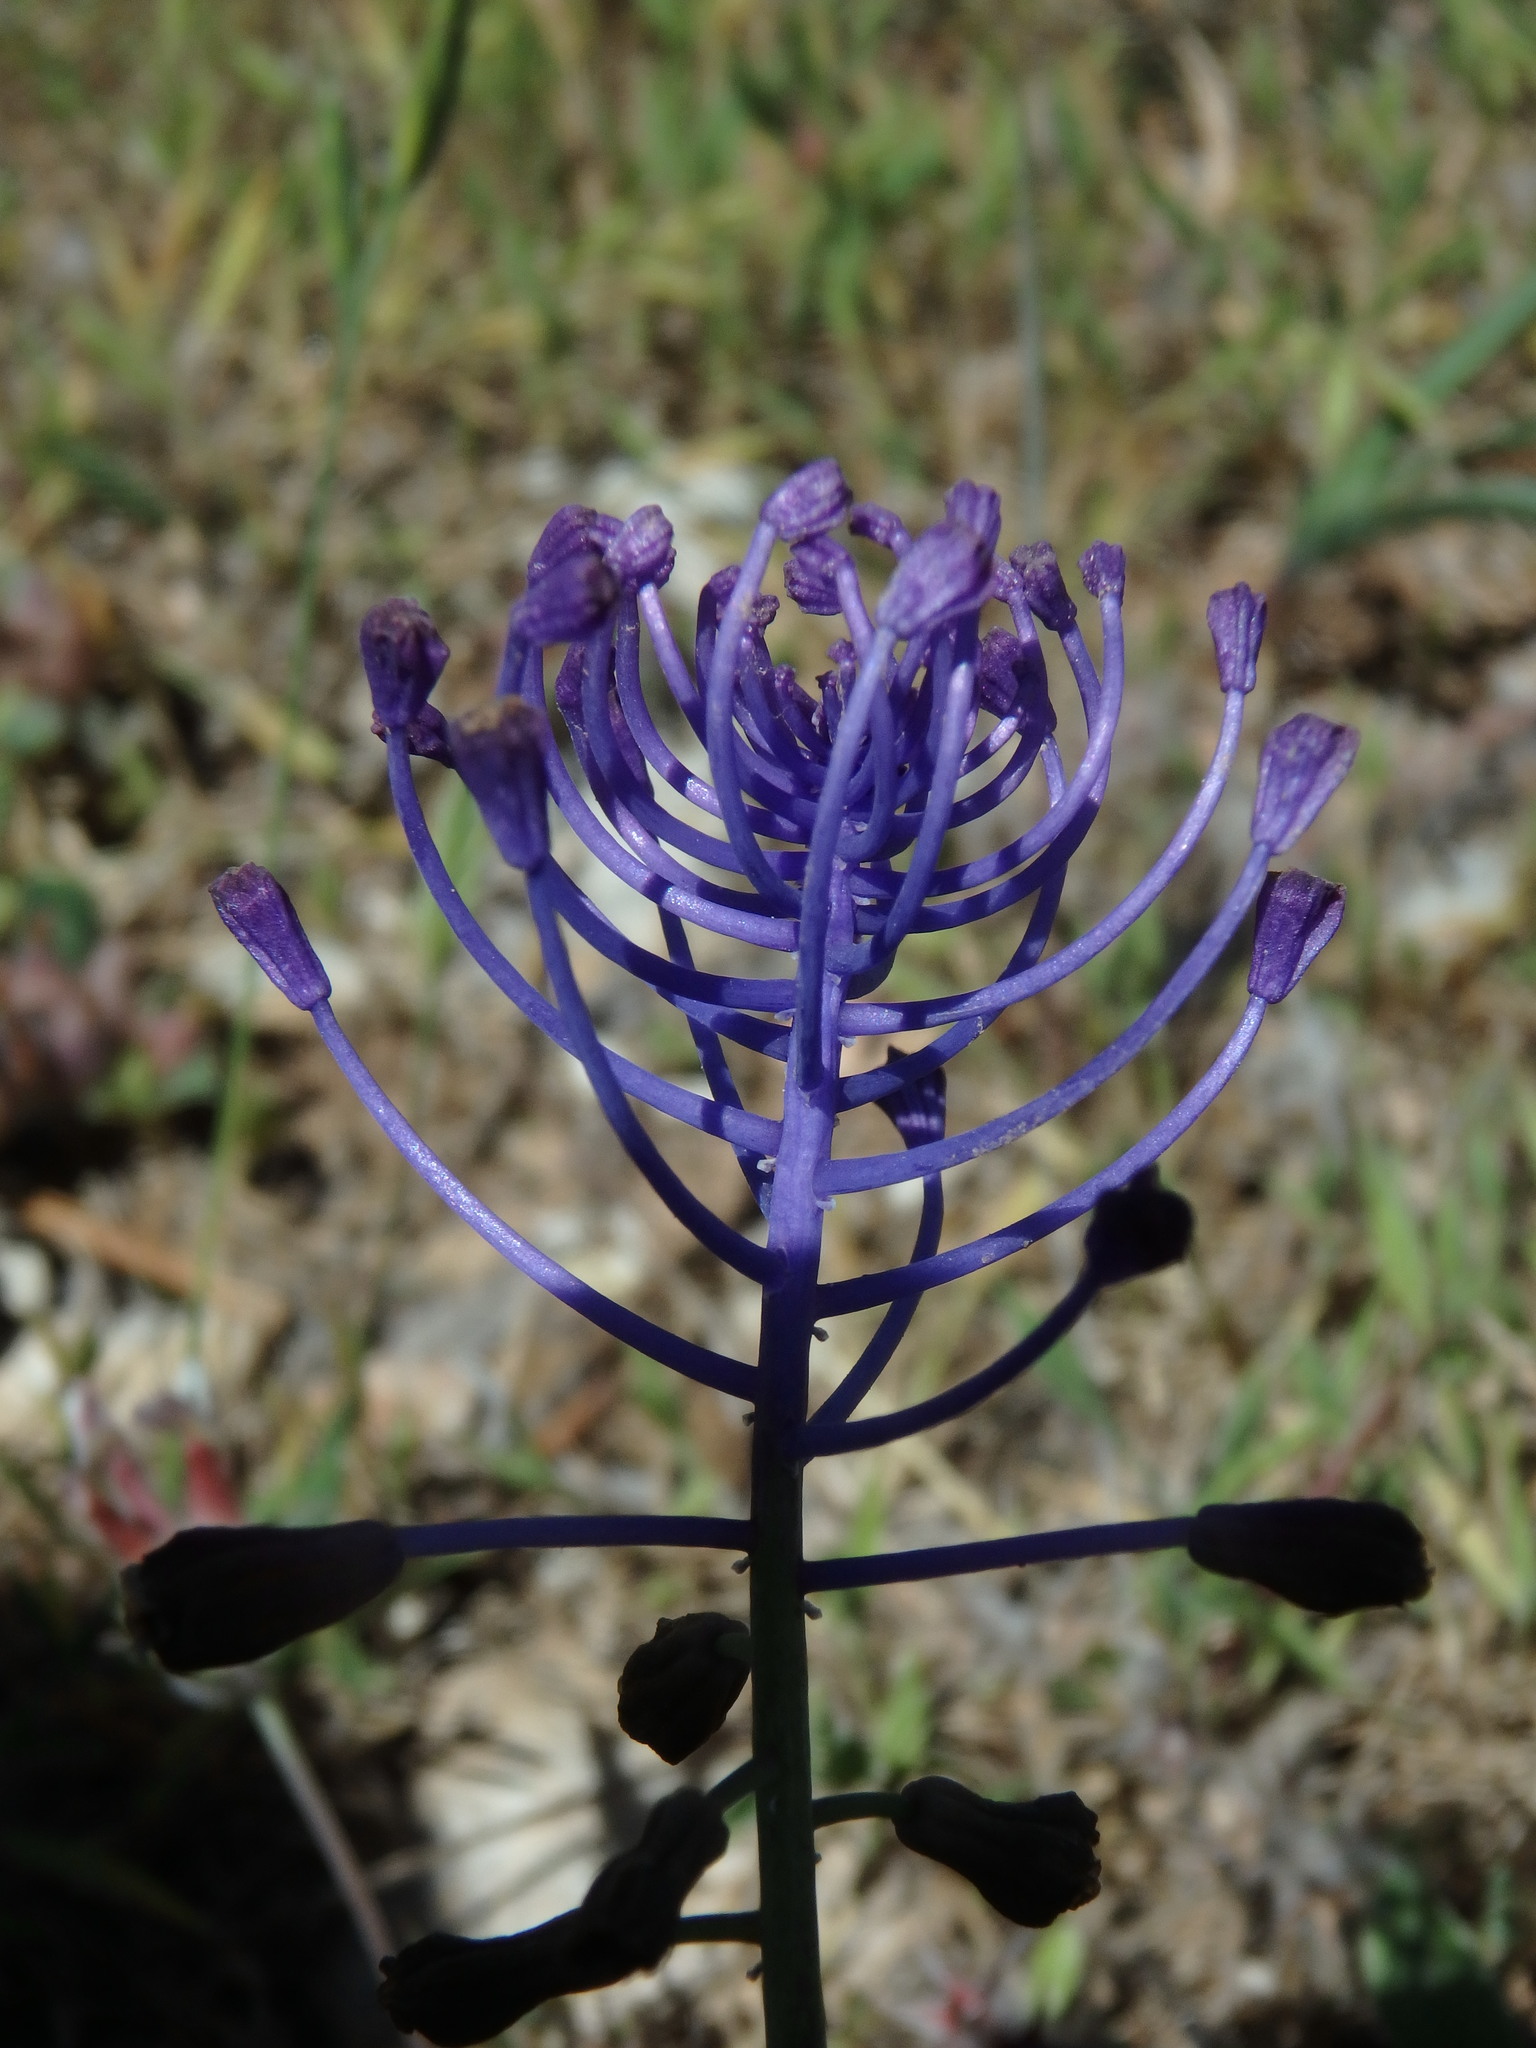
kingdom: Plantae
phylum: Tracheophyta
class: Liliopsida
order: Asparagales
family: Asparagaceae
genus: Muscari
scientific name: Muscari comosum
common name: Tassel hyacinth
